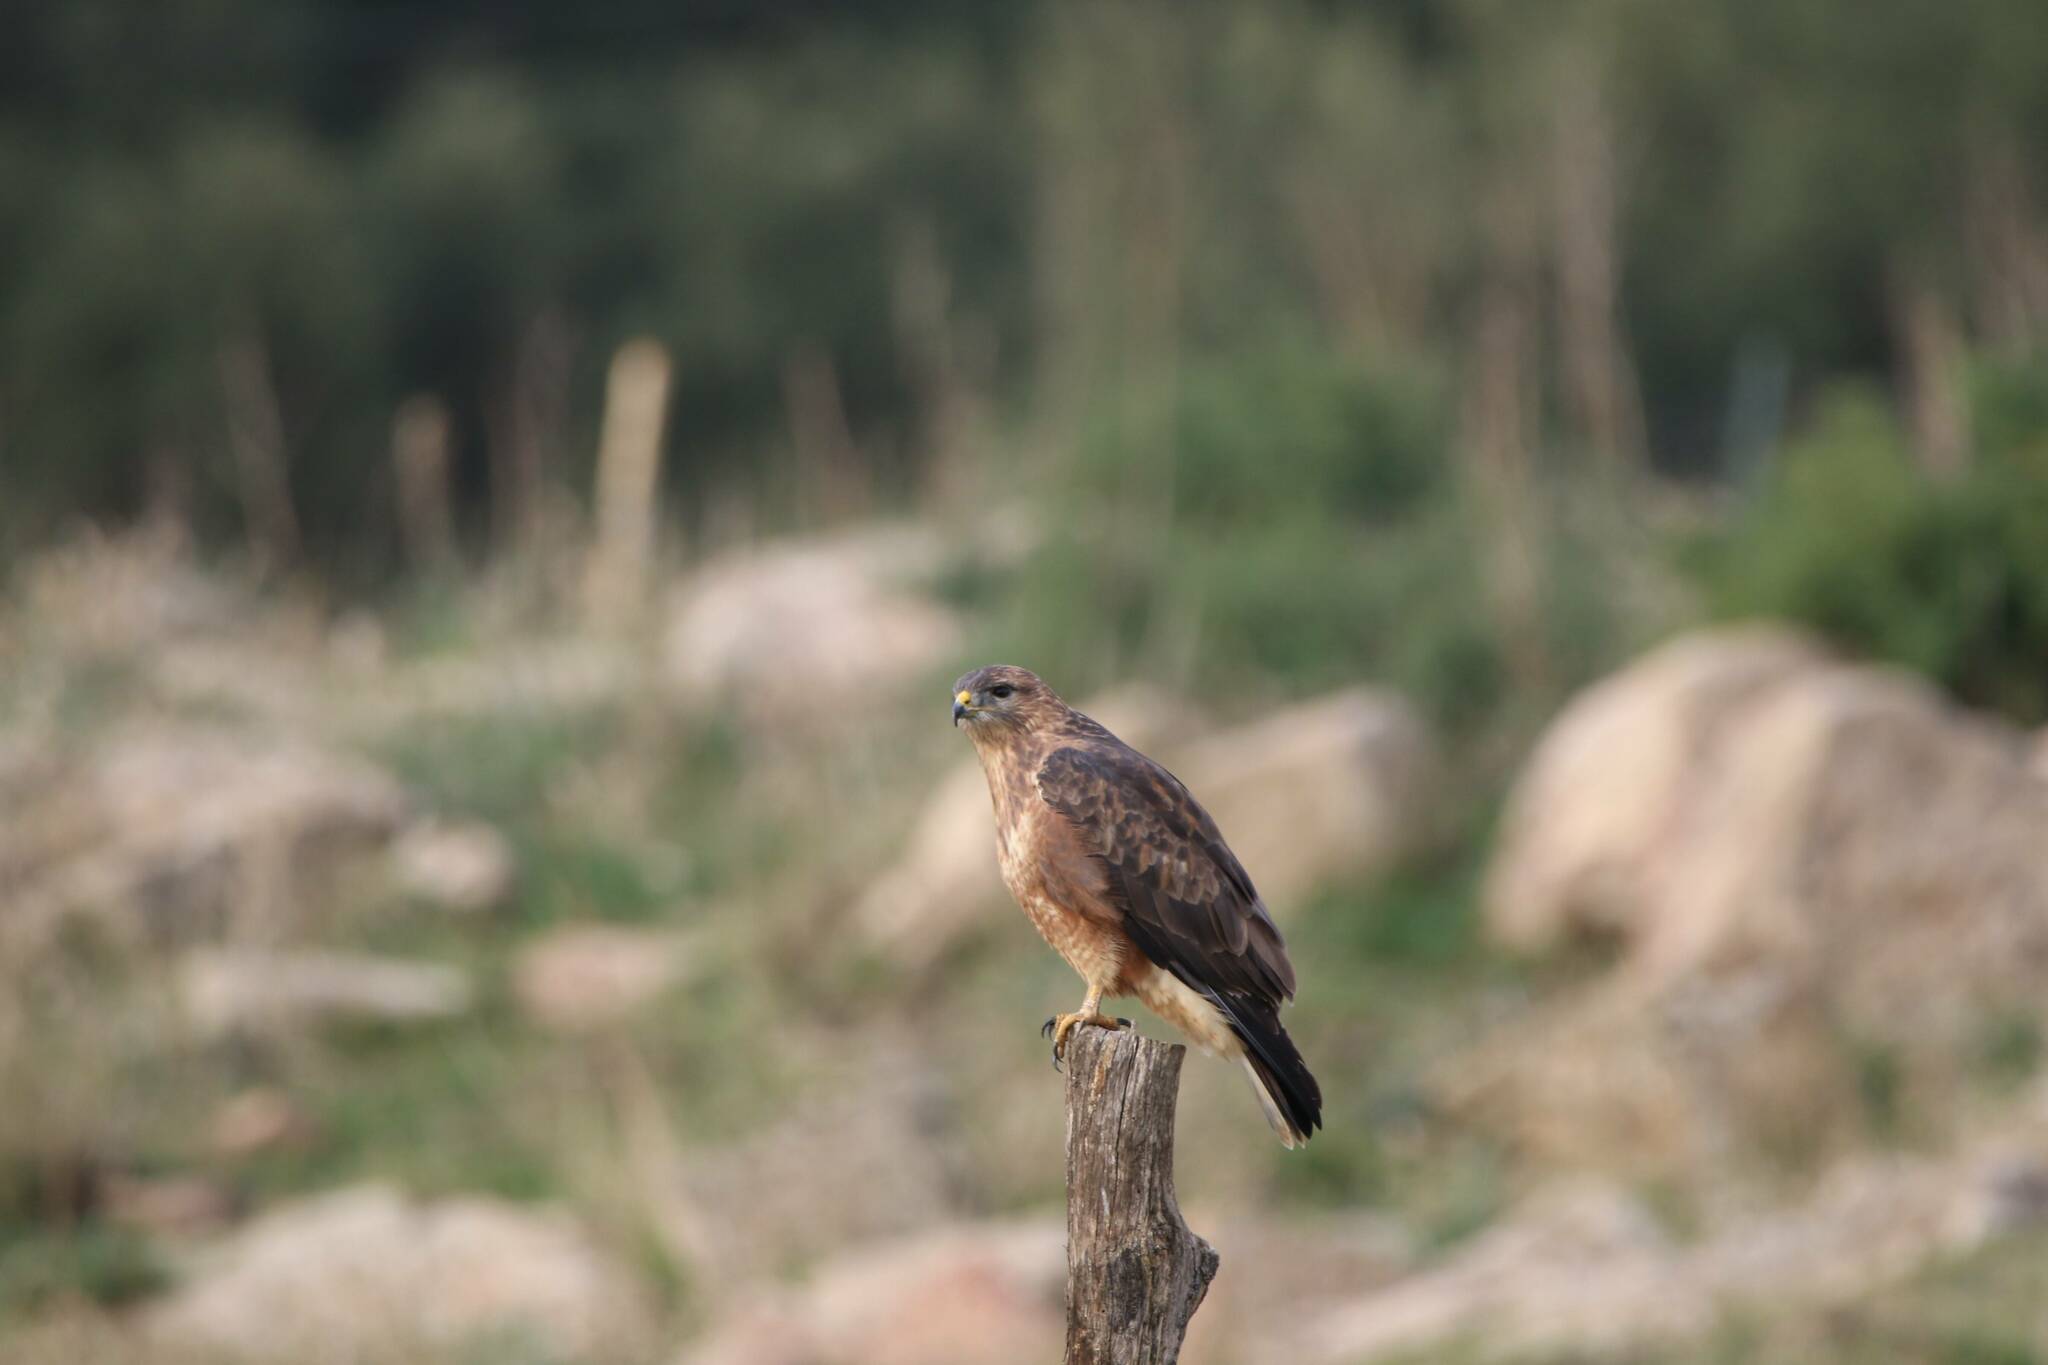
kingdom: Animalia
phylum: Chordata
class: Aves
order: Accipitriformes
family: Accipitridae
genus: Buteo
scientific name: Buteo rufinus
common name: Long-legged buzzard
